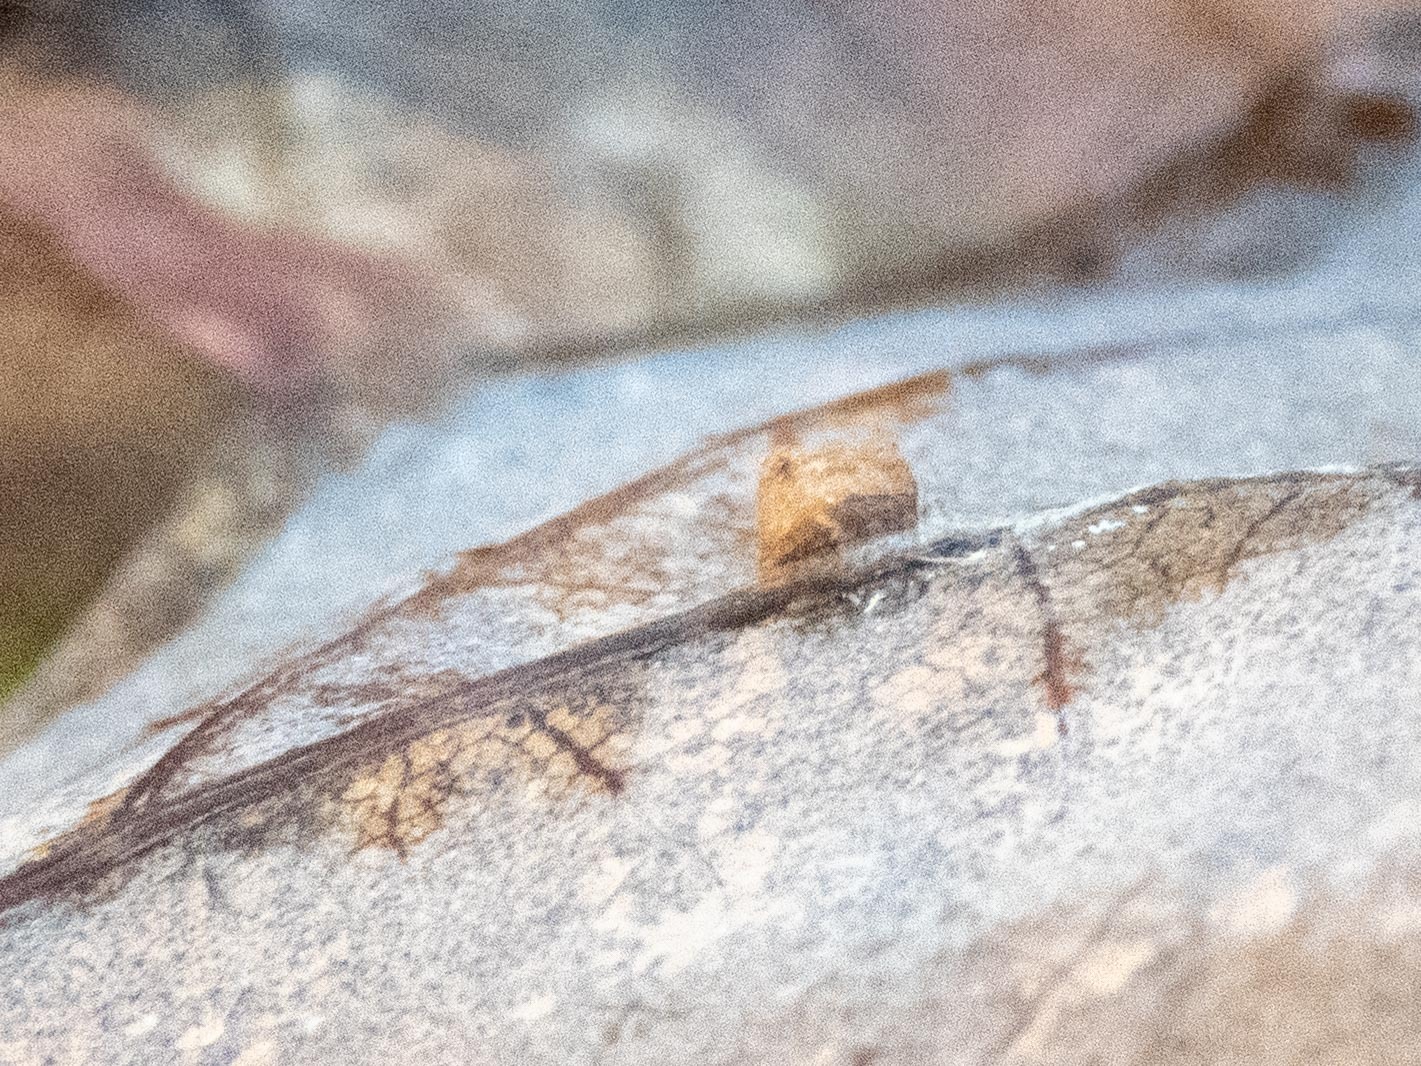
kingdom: Animalia
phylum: Arthropoda
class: Insecta
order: Hymenoptera
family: Cynipidae
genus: Neuroterus
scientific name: Neuroterus anthracinus
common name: Oyster gall
